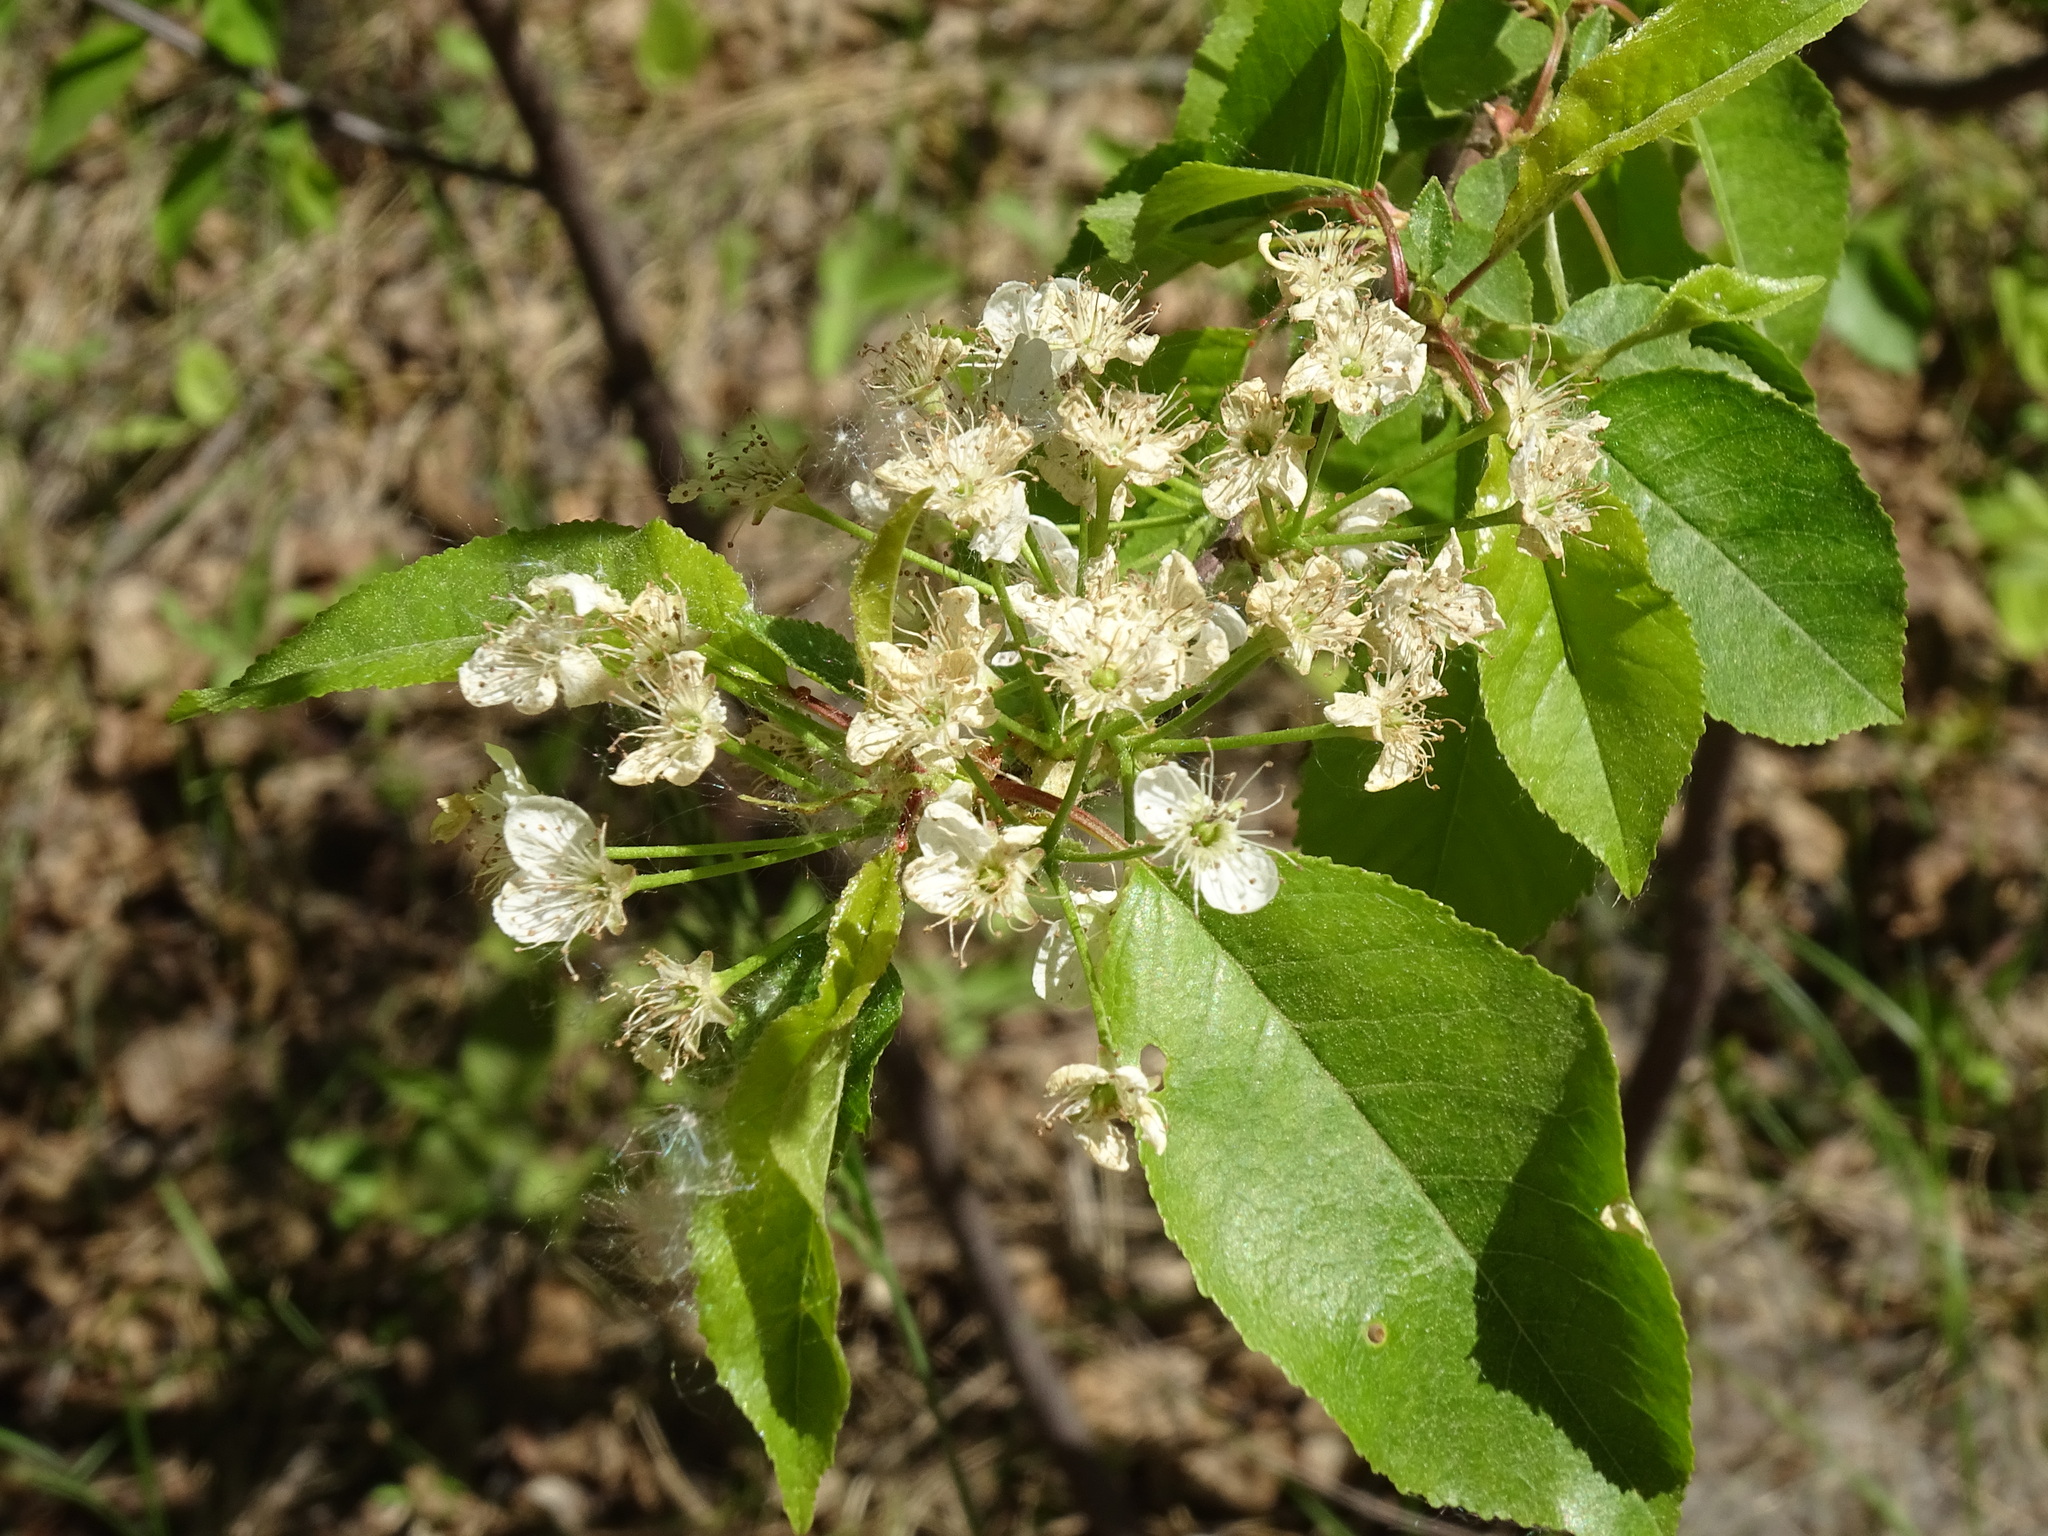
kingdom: Plantae
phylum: Tracheophyta
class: Magnoliopsida
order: Rosales
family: Rosaceae
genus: Prunus
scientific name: Prunus pensylvanica
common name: Pin cherry
